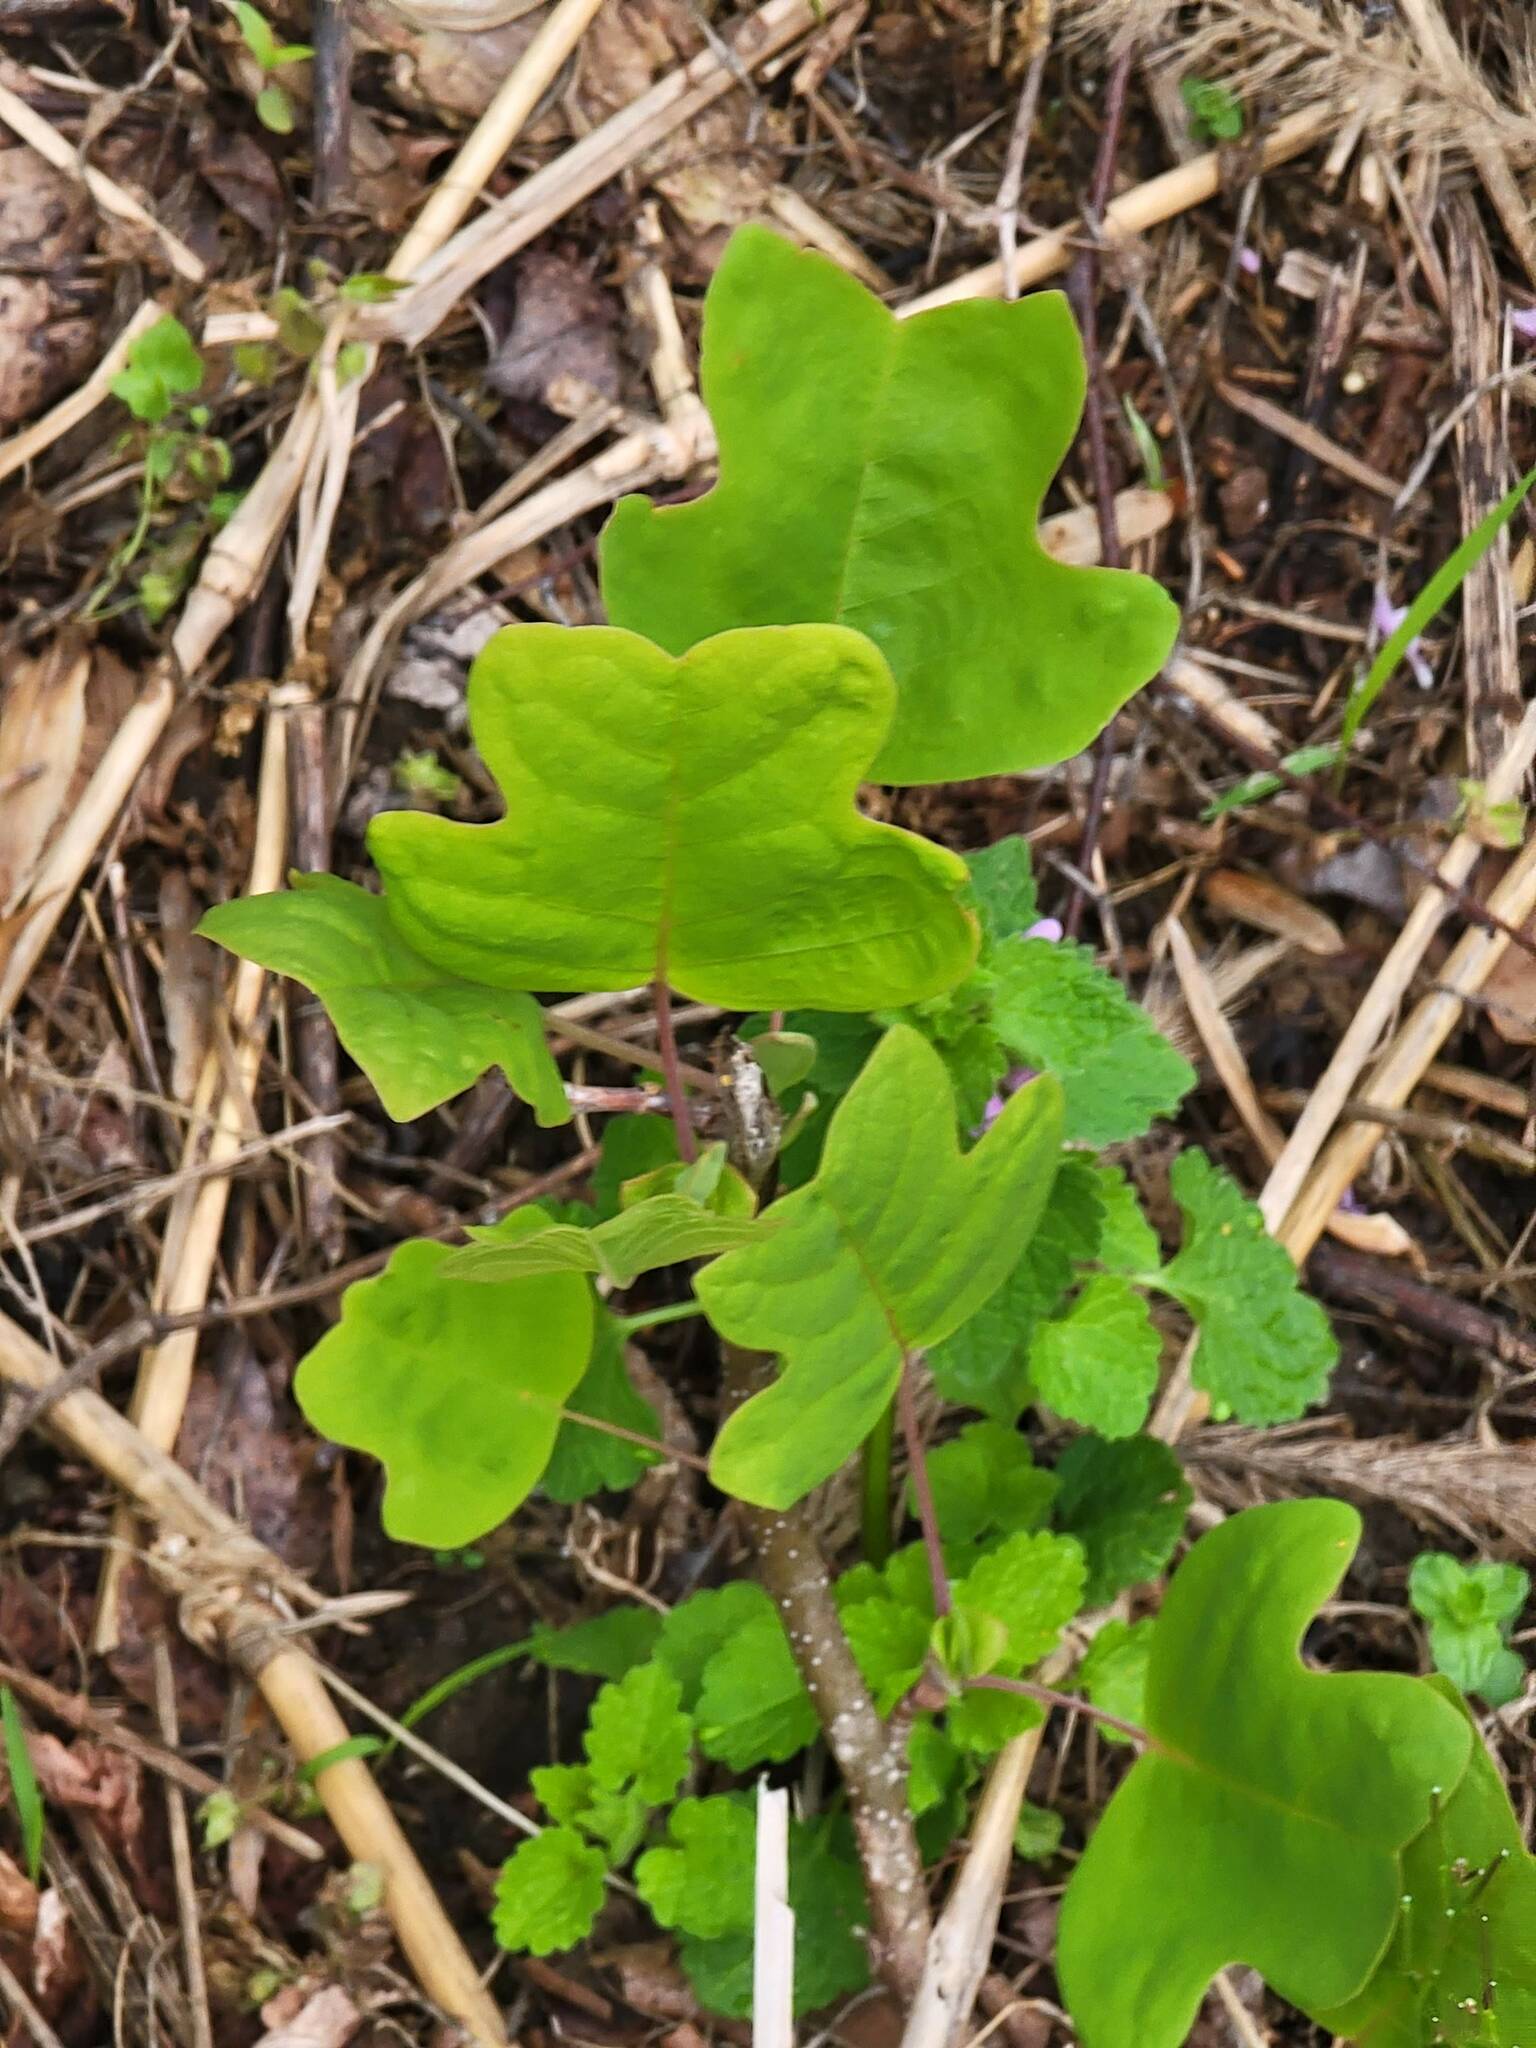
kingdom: Plantae
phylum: Tracheophyta
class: Magnoliopsida
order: Magnoliales
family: Magnoliaceae
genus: Liriodendron
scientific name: Liriodendron tulipifera
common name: Tulip tree
